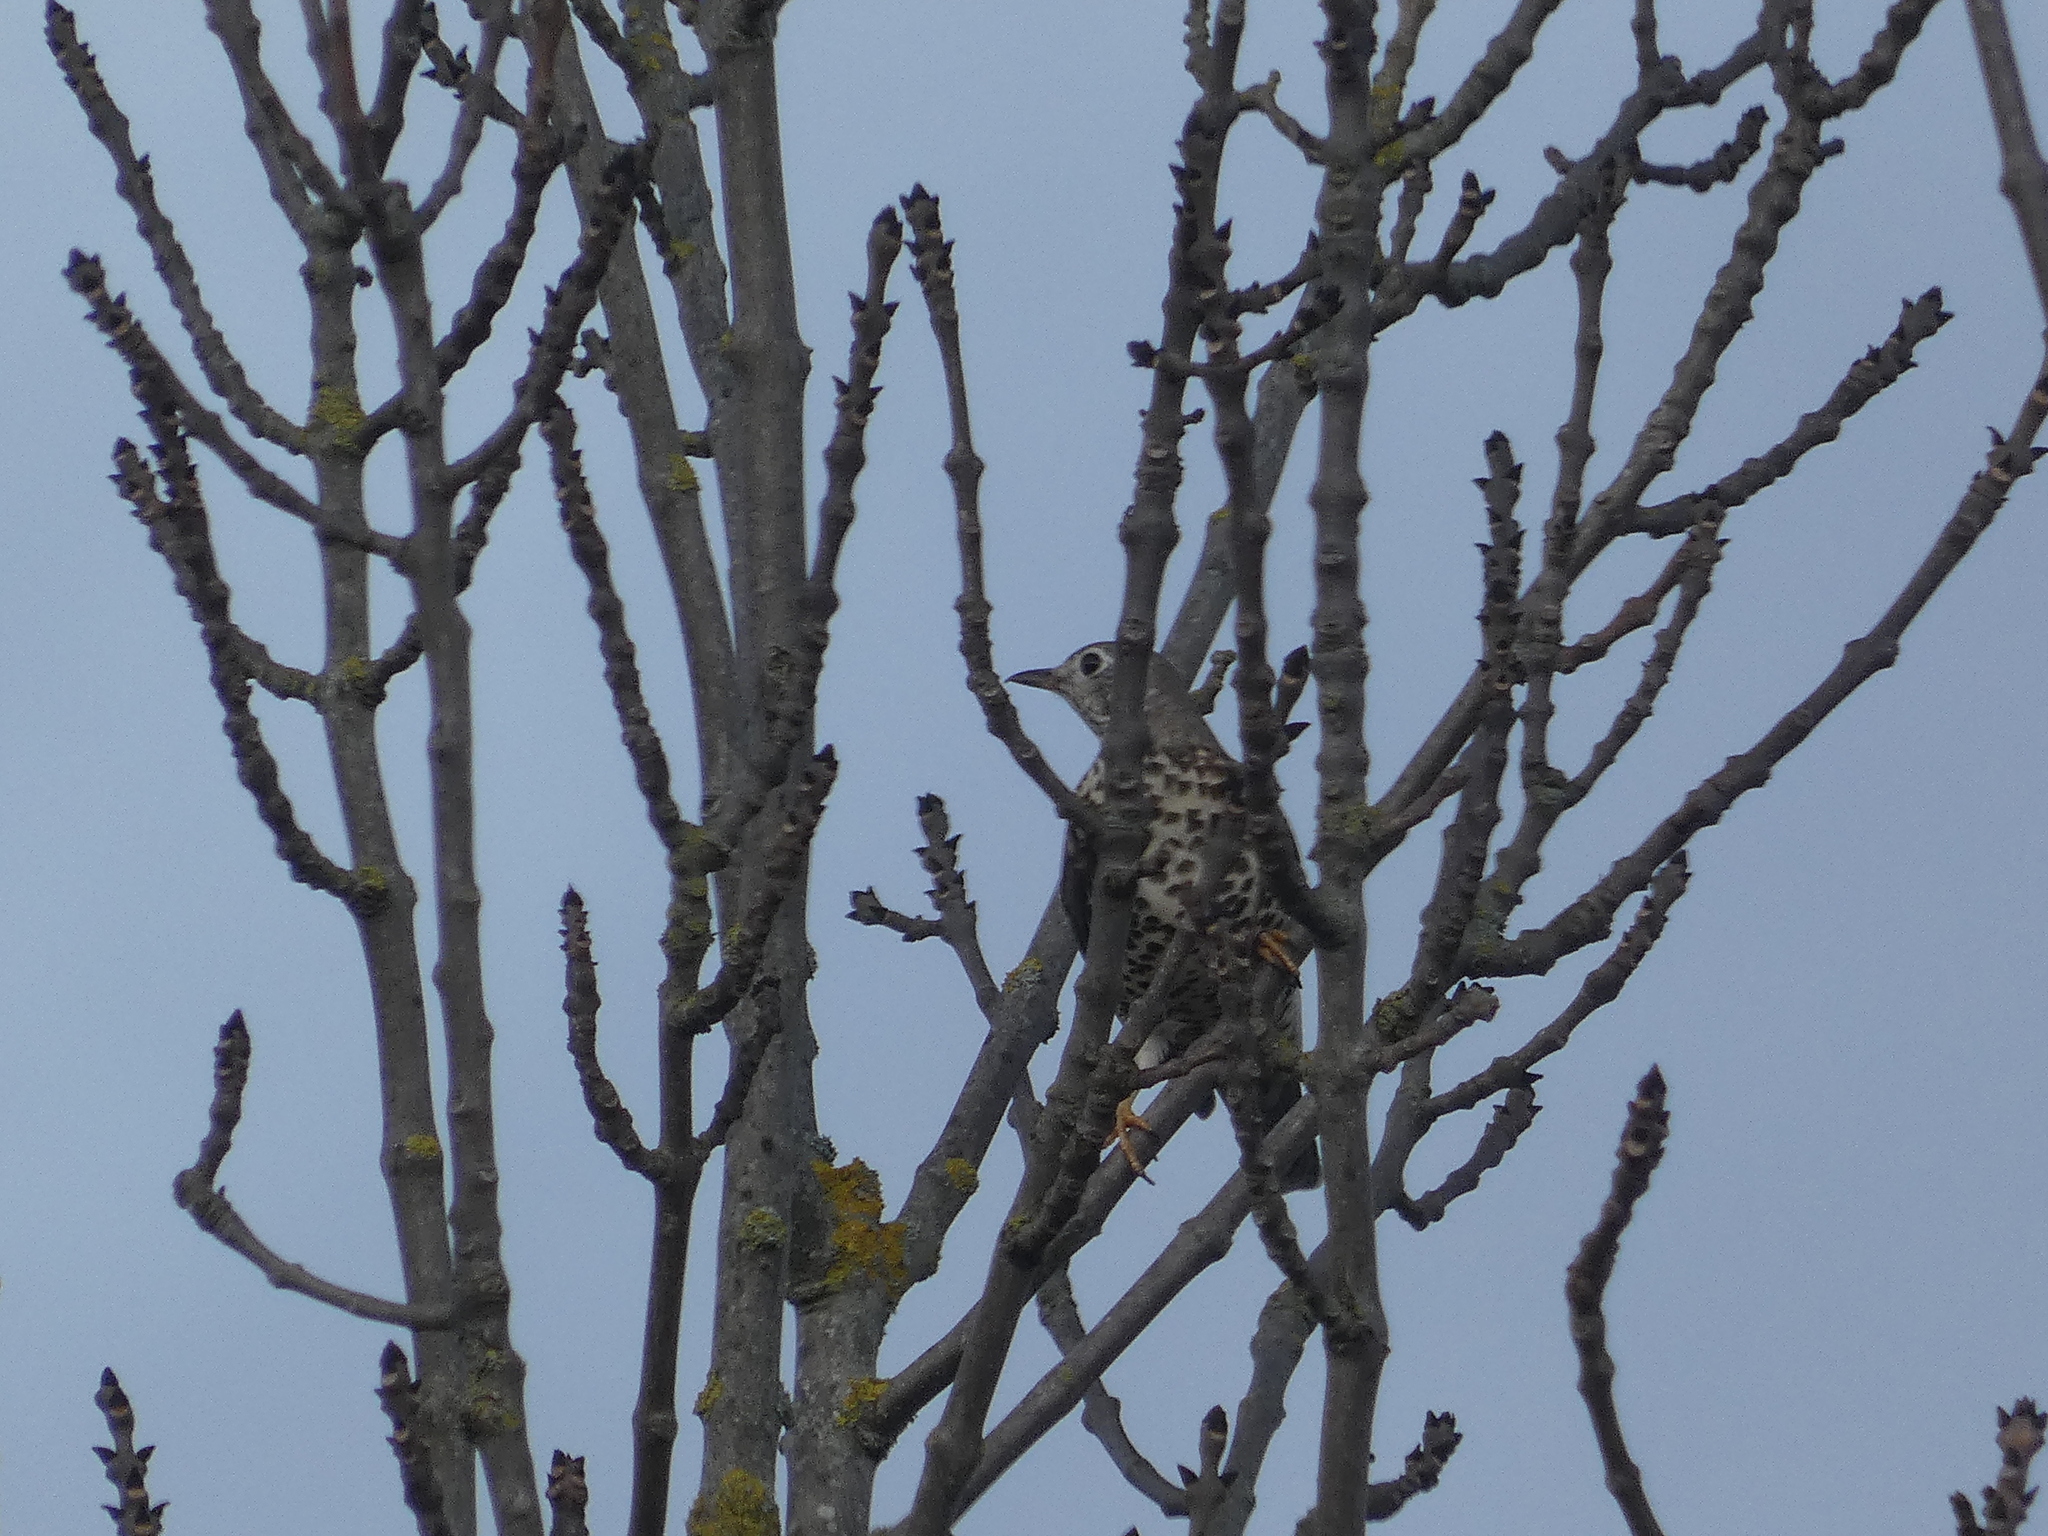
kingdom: Animalia
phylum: Chordata
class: Aves
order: Passeriformes
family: Turdidae
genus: Turdus
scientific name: Turdus viscivorus
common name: Mistle thrush
